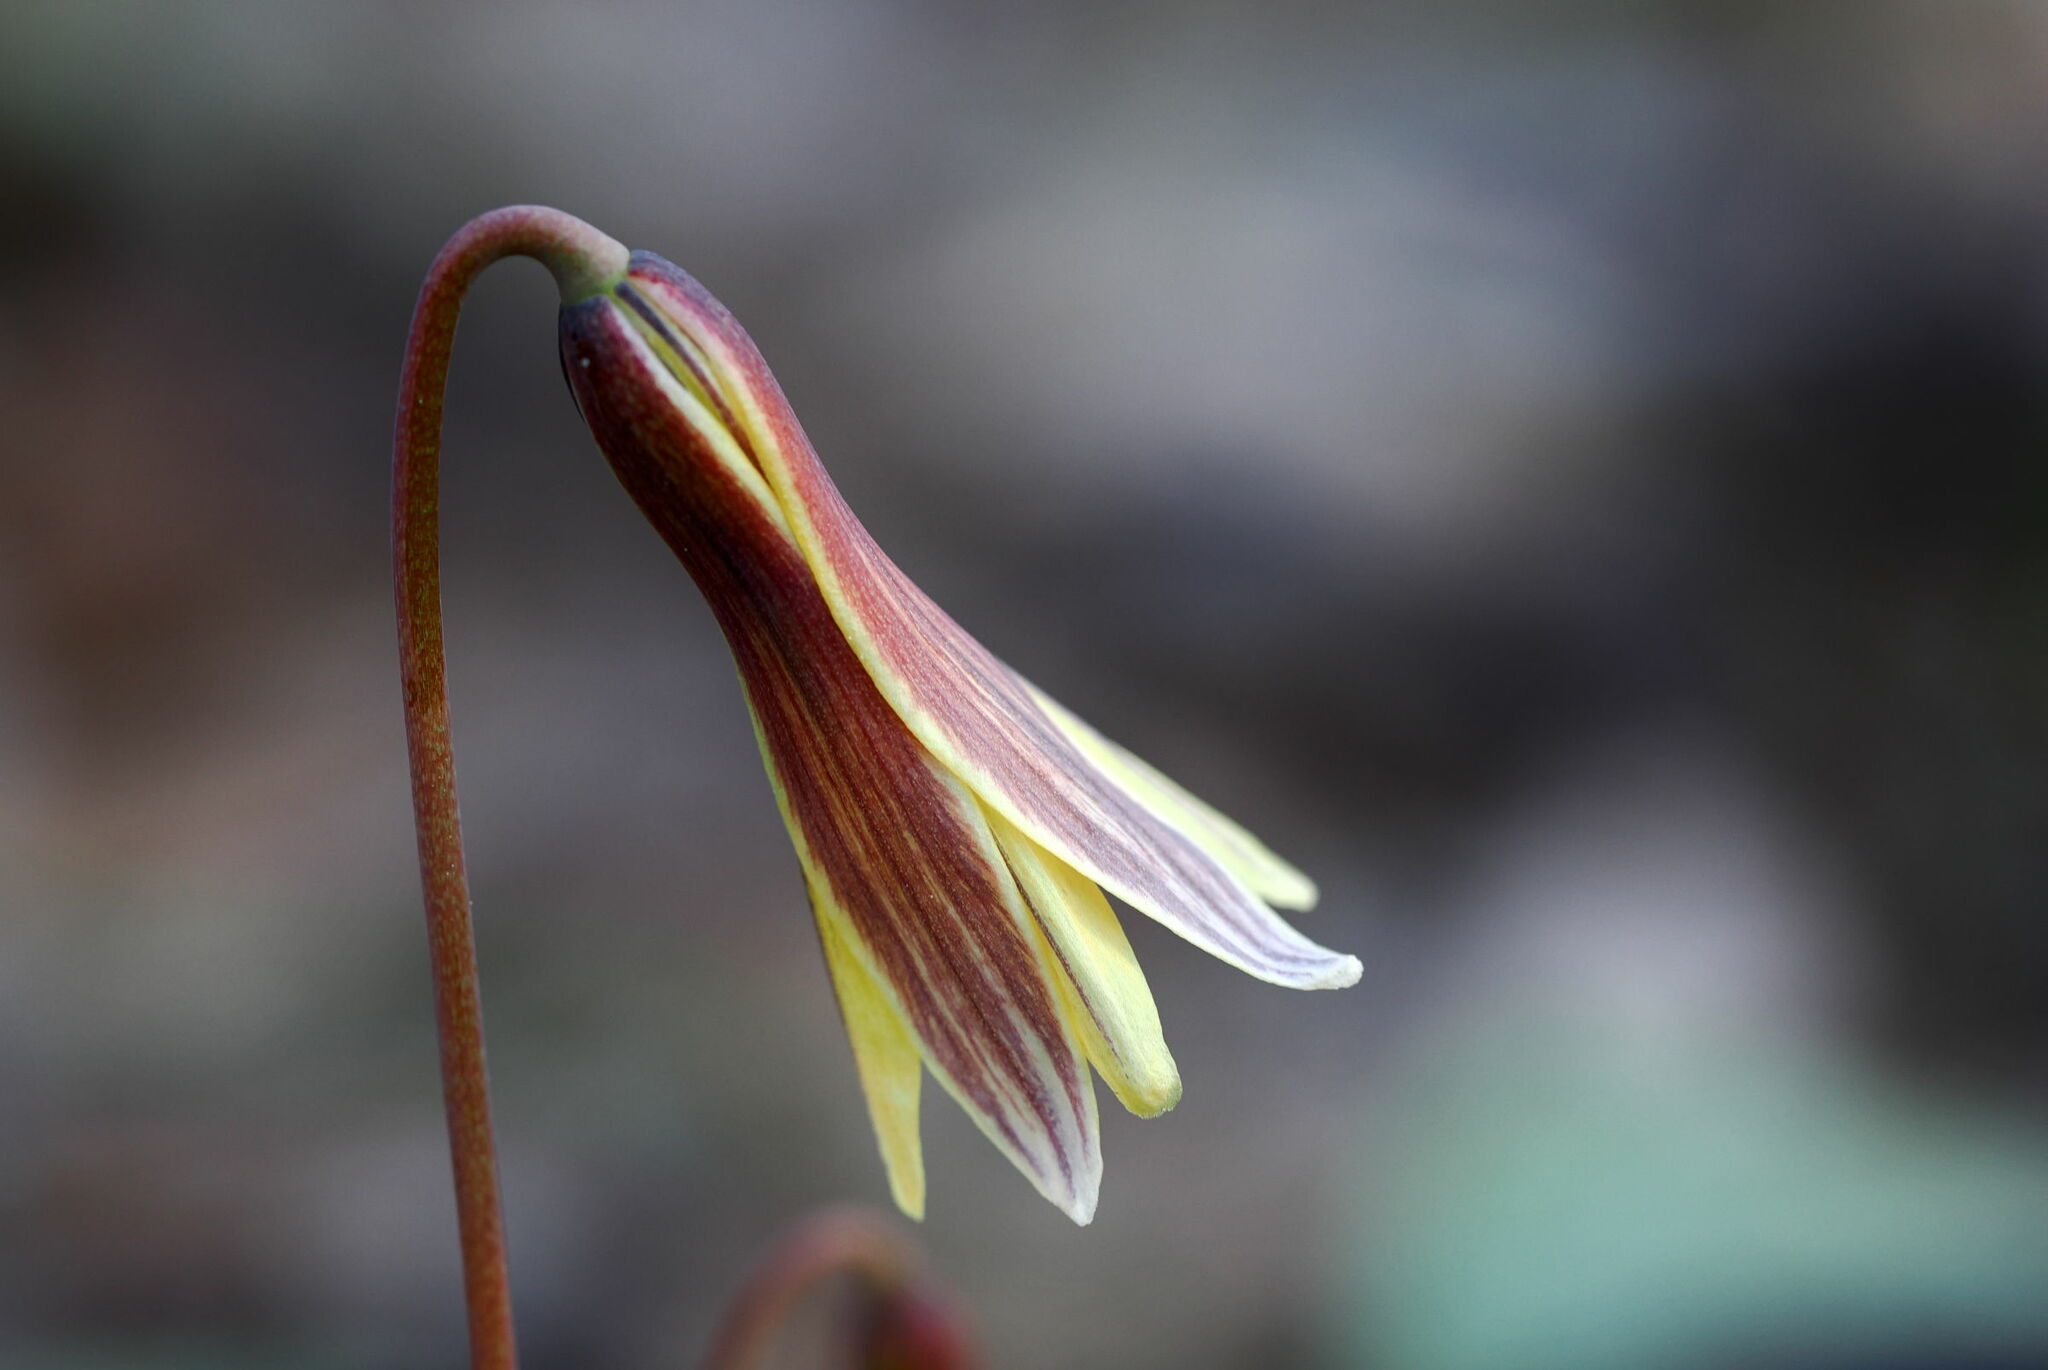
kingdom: Plantae
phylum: Tracheophyta
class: Liliopsida
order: Liliales
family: Liliaceae
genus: Erythronium
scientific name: Erythronium umbilicatum
